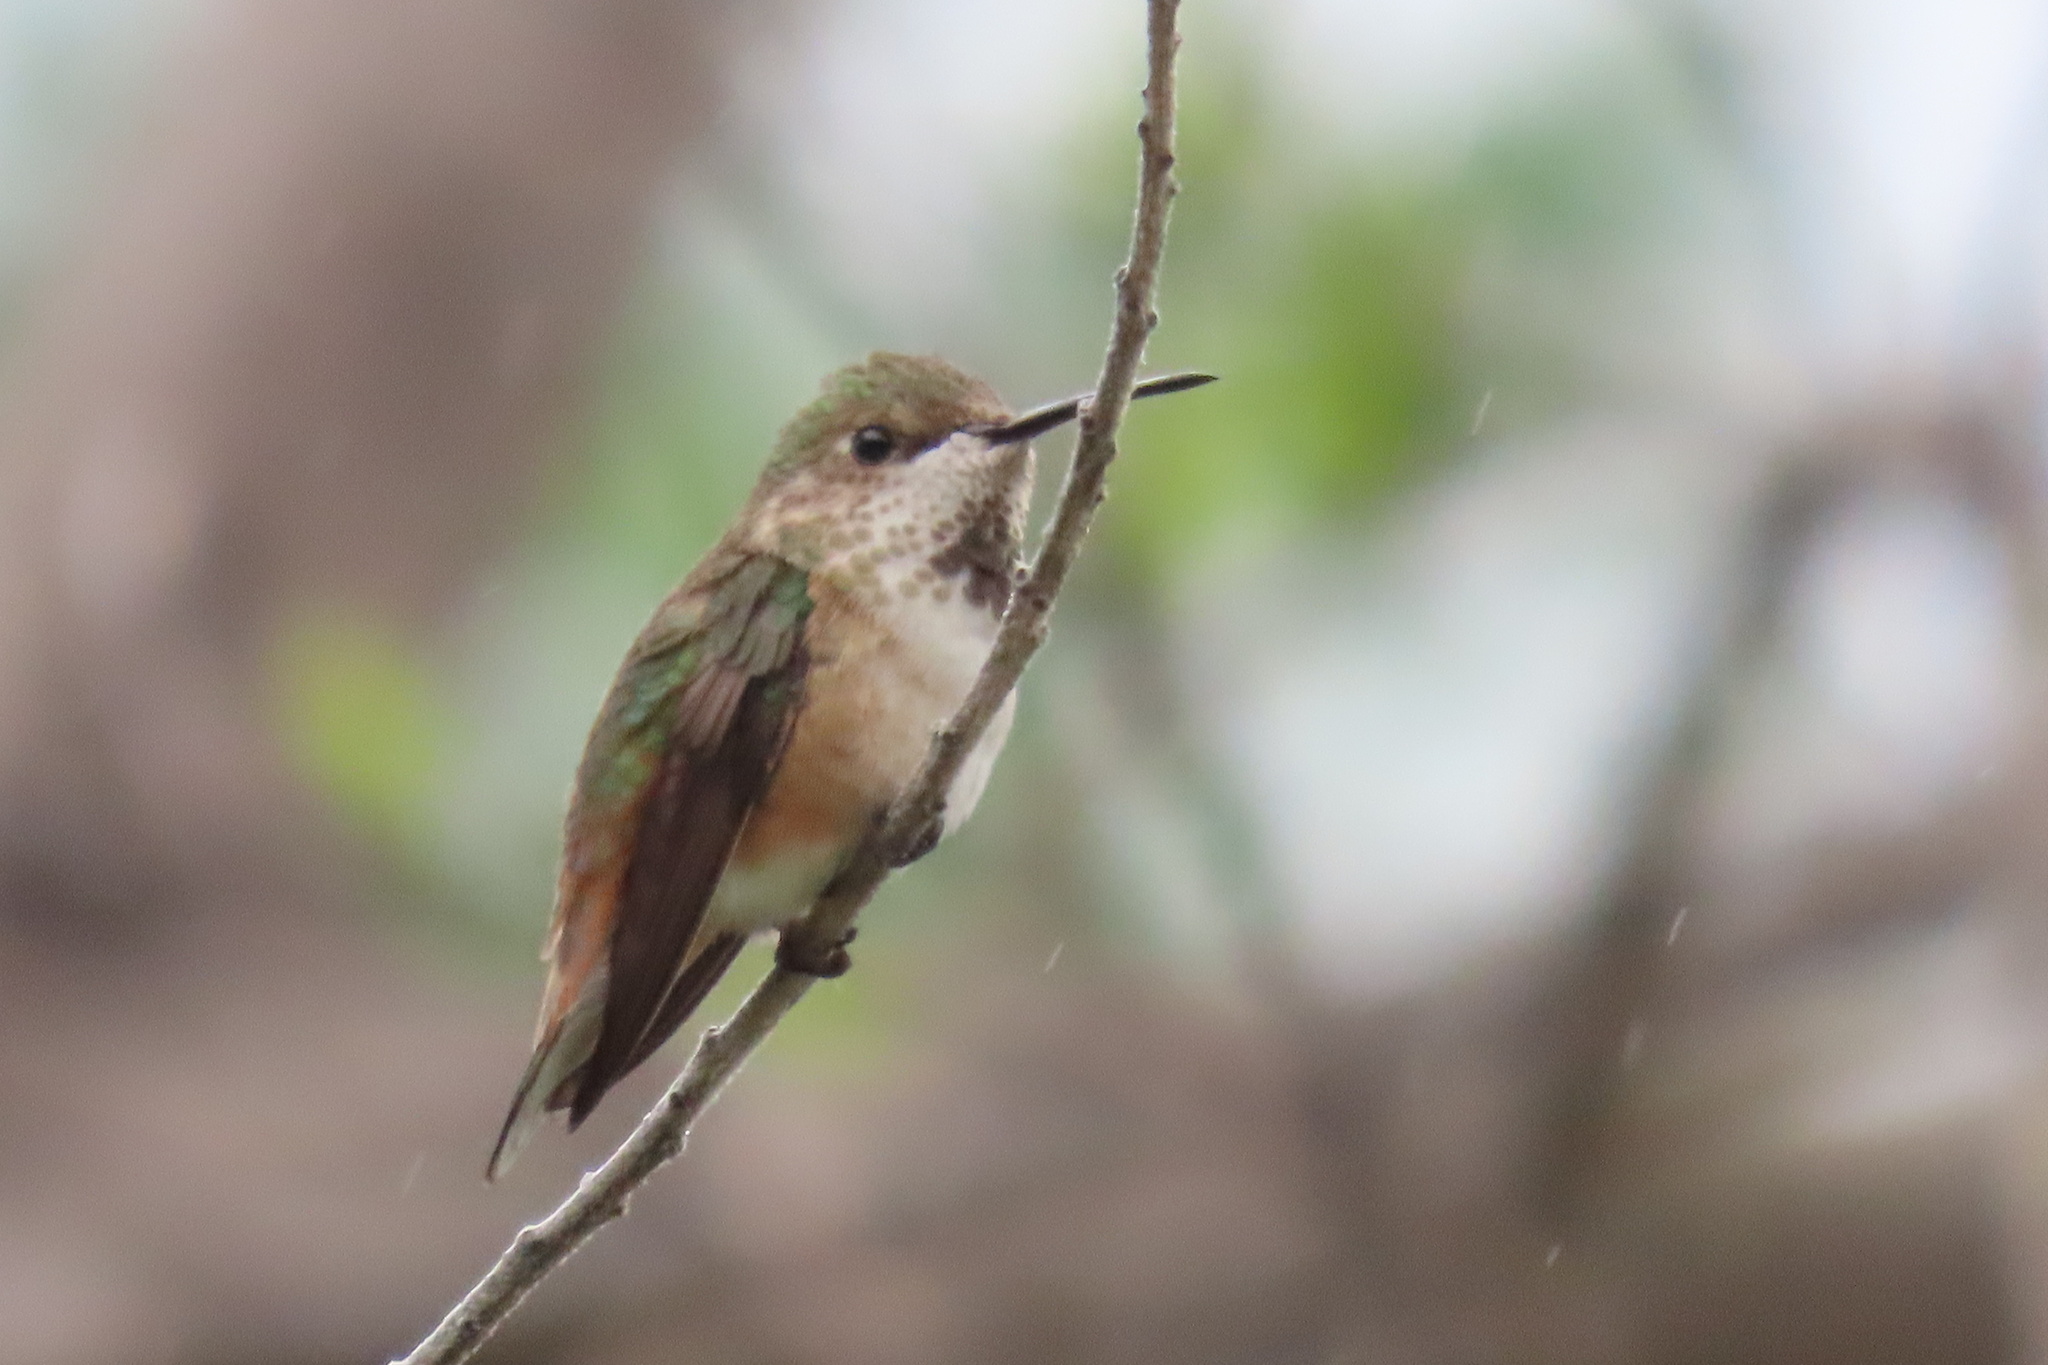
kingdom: Animalia
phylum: Chordata
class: Aves
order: Apodiformes
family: Trochilidae
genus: Selasphorus
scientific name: Selasphorus
